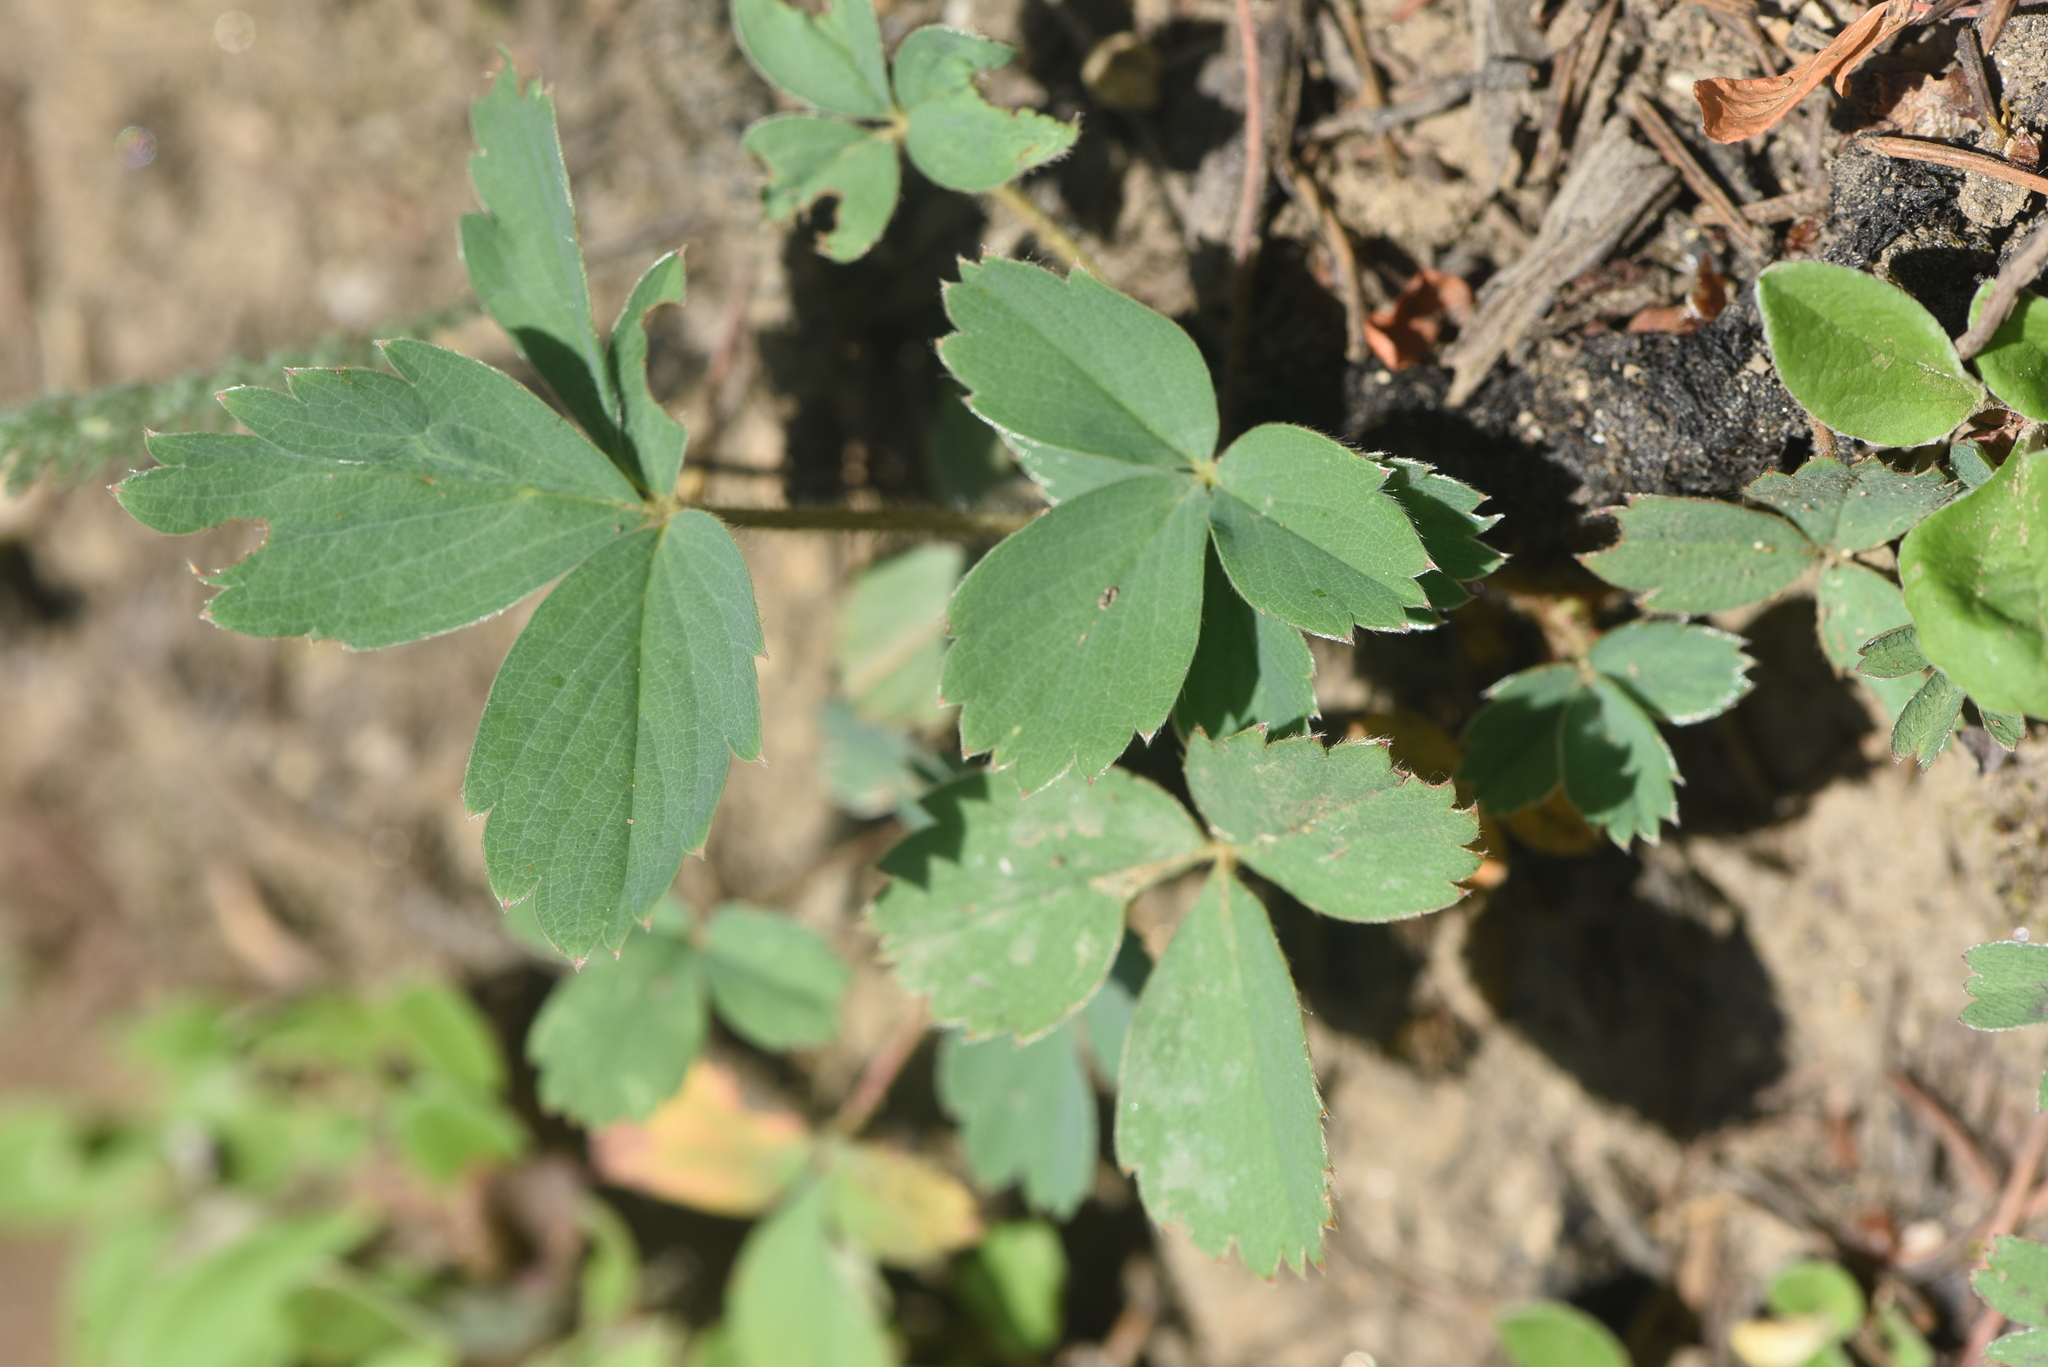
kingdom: Plantae
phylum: Tracheophyta
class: Magnoliopsida
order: Rosales
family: Rosaceae
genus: Fragaria
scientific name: Fragaria virginiana
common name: Thickleaved wild strawberry
